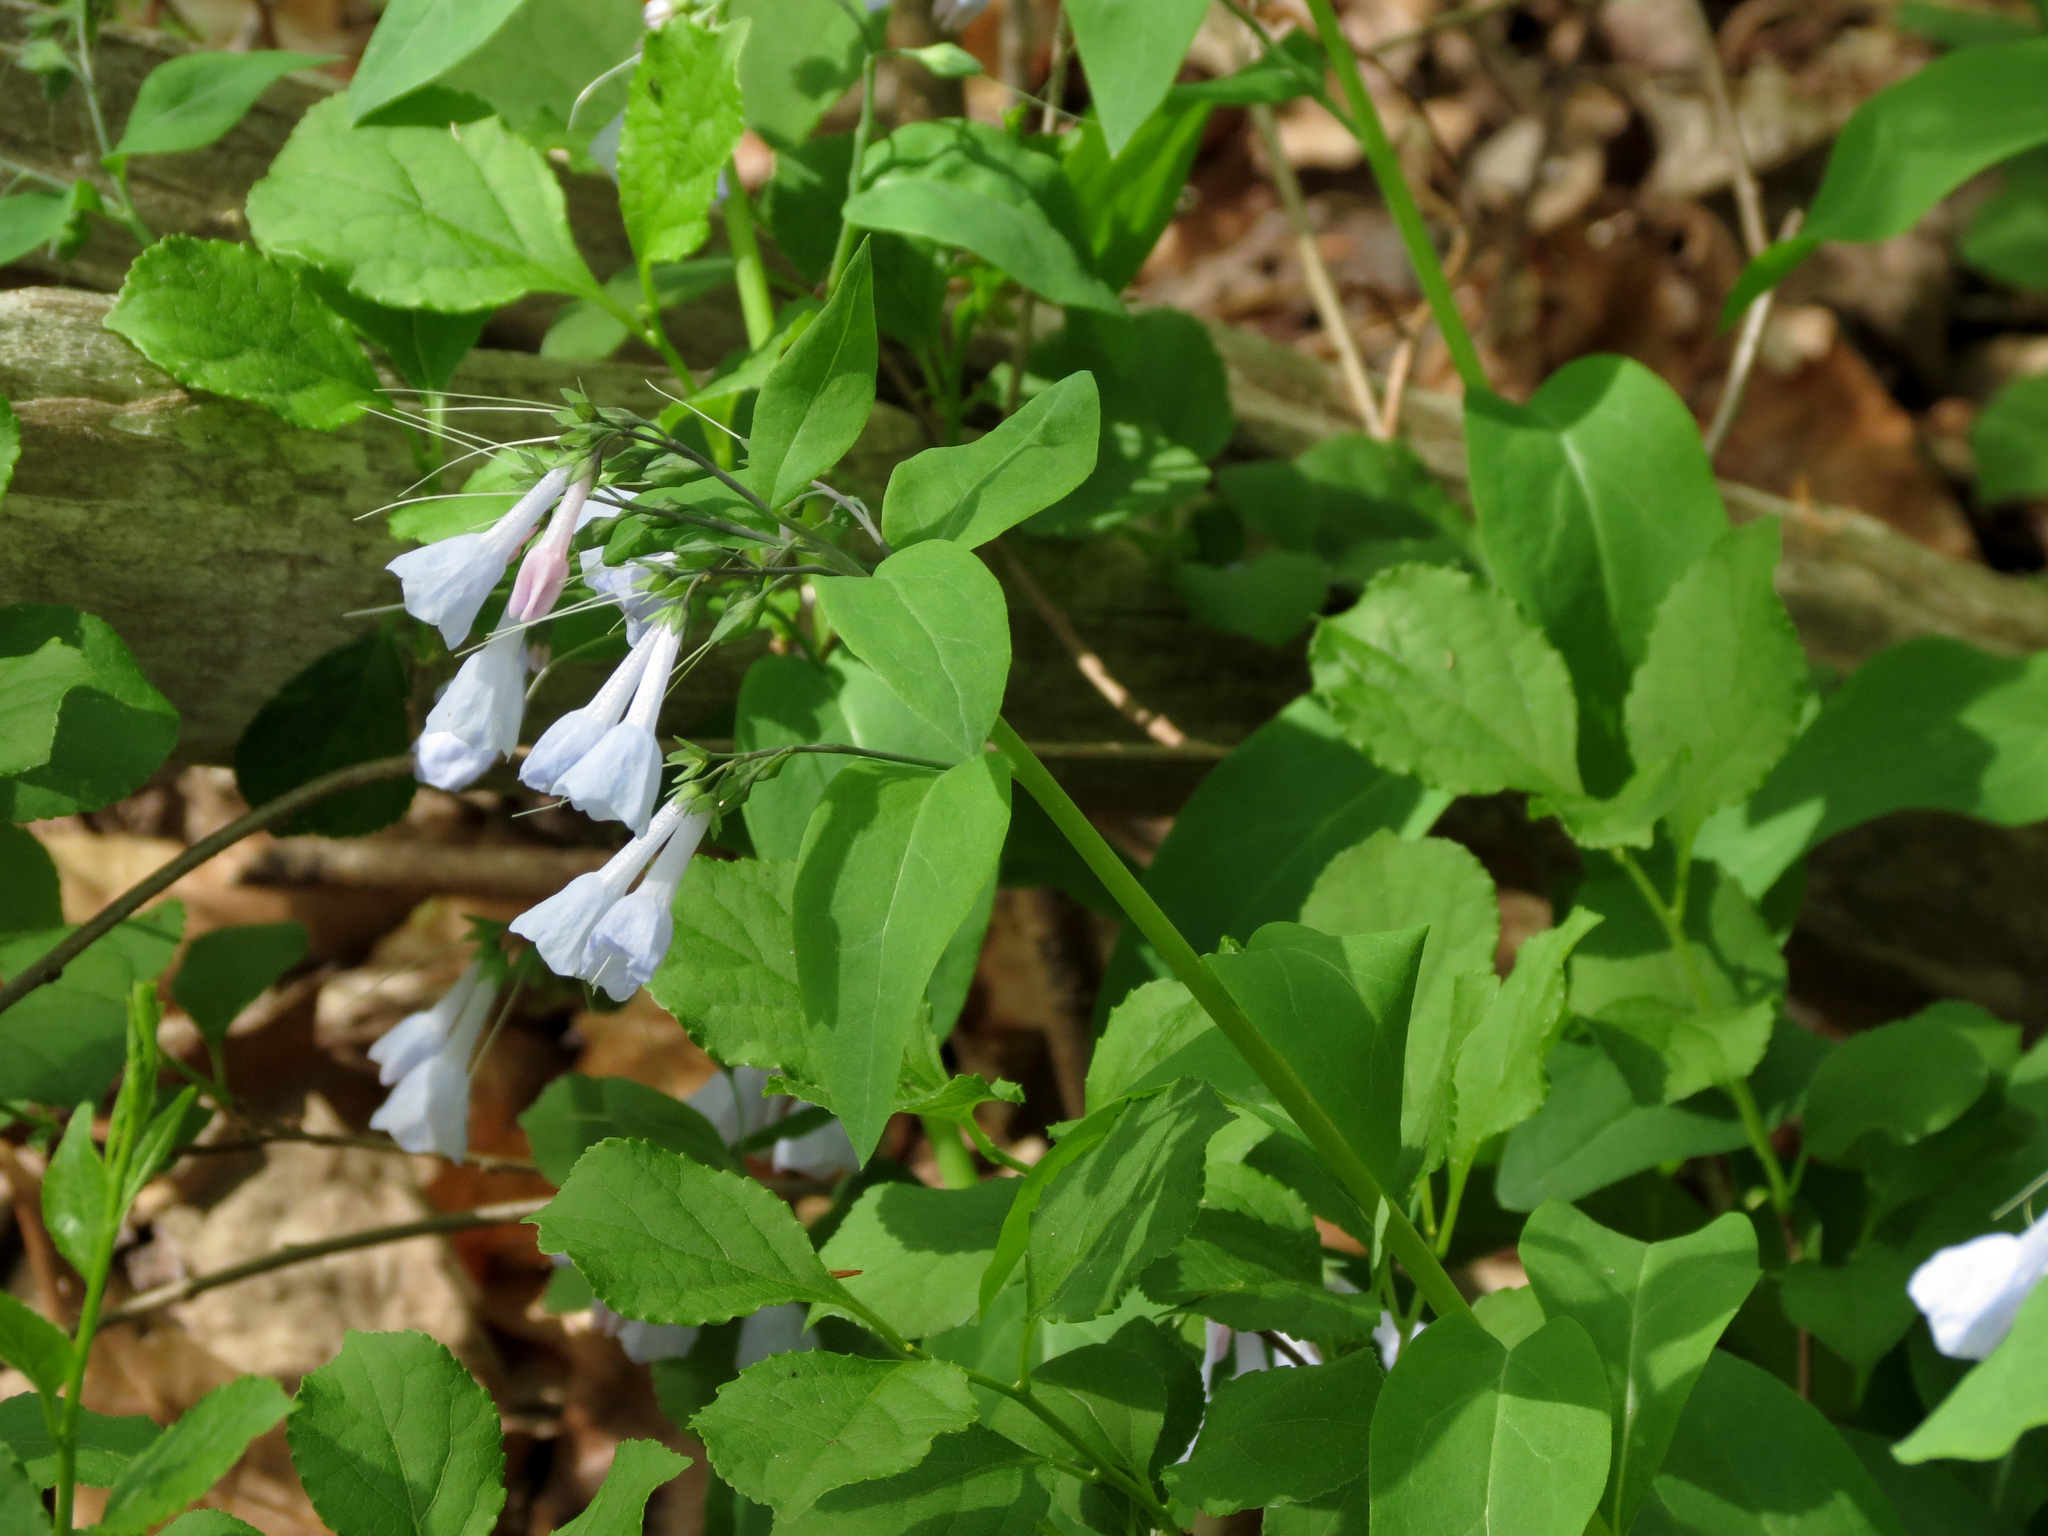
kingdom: Plantae
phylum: Tracheophyta
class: Magnoliopsida
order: Boraginales
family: Boraginaceae
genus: Mertensia
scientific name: Mertensia virginica
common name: Virginia bluebells
